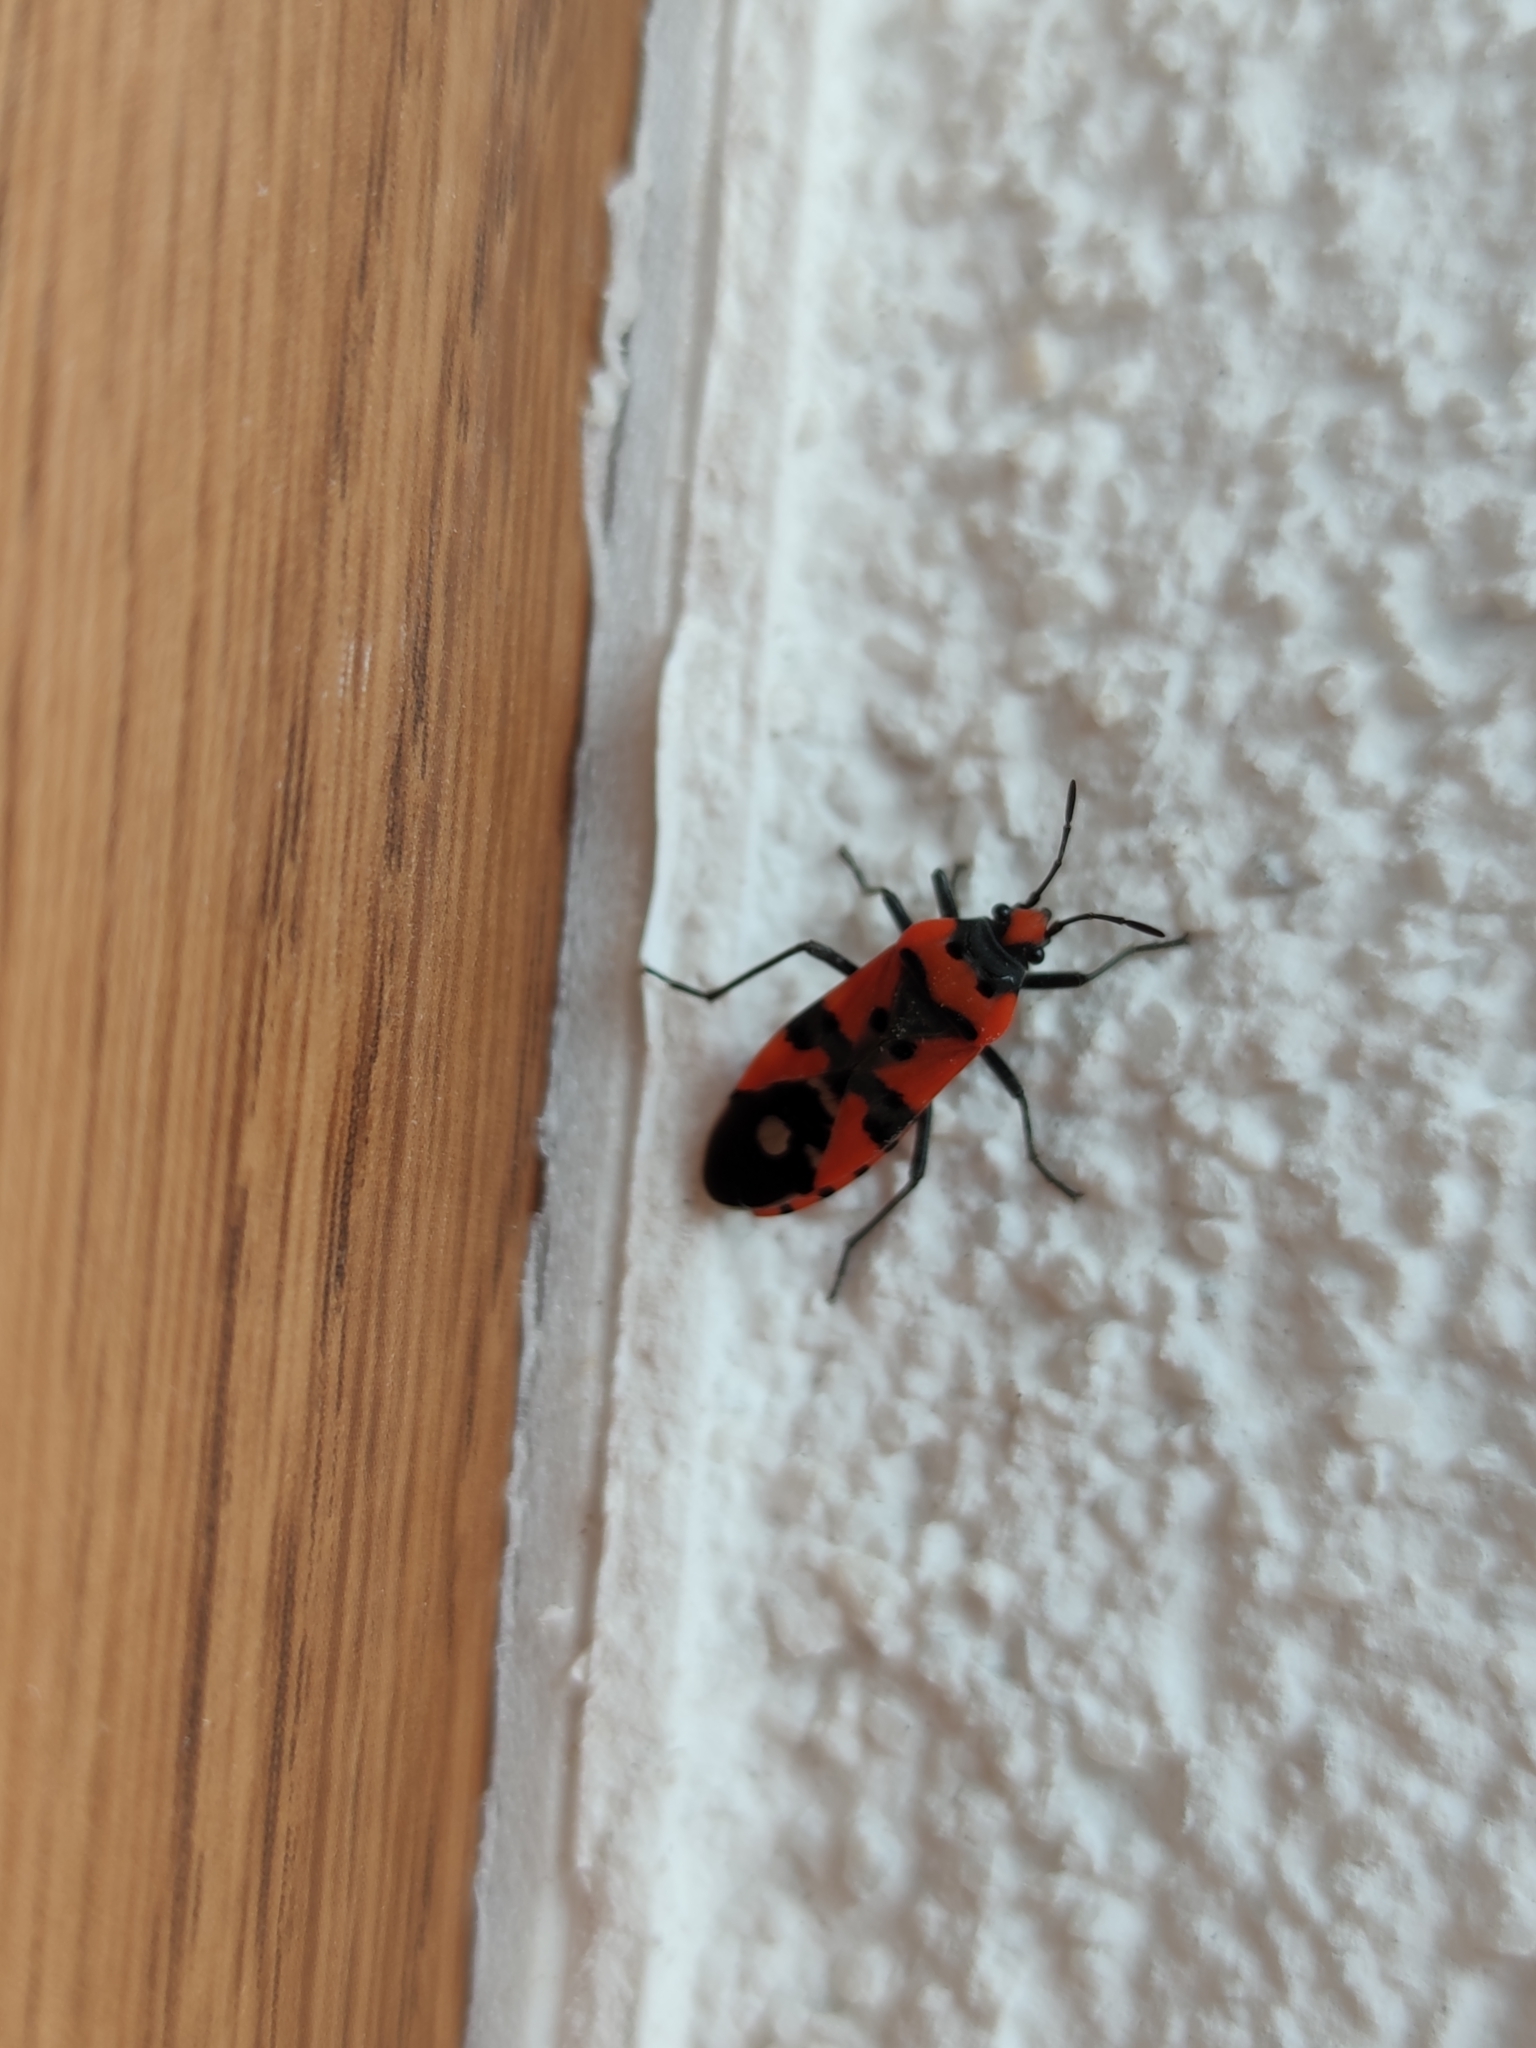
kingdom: Animalia
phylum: Arthropoda
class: Insecta
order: Hemiptera
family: Lygaeidae
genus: Lygaeus
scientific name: Lygaeus equestris
